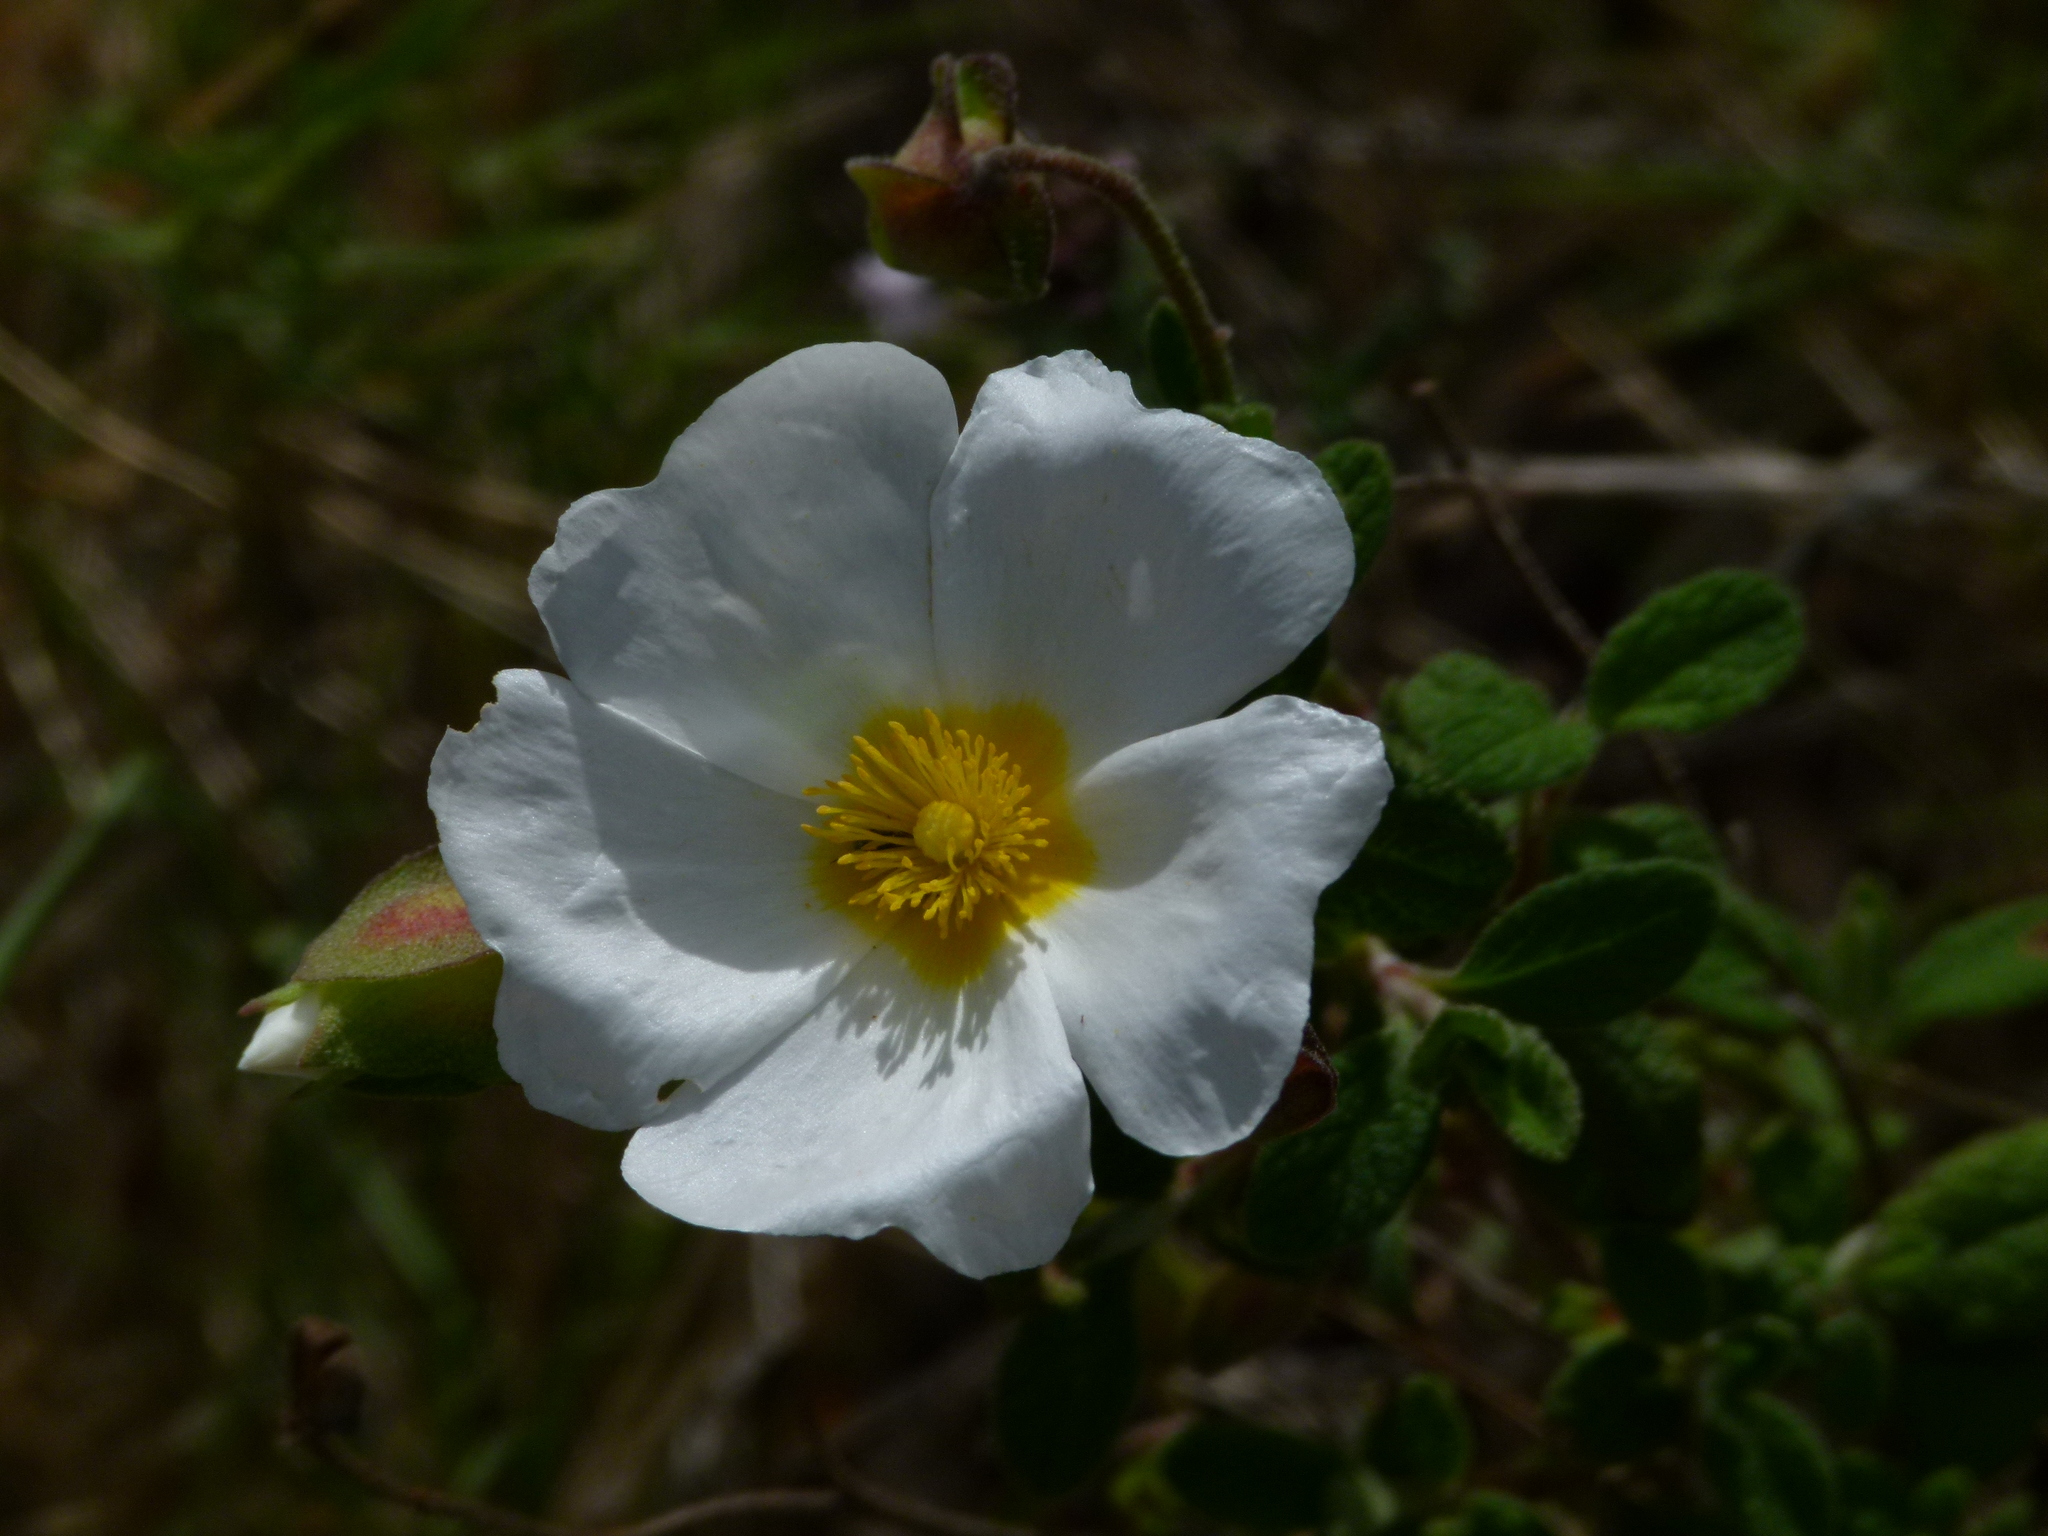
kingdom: Plantae
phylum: Tracheophyta
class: Magnoliopsida
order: Malvales
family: Cistaceae
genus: Cistus
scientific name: Cistus salviifolius
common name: Salvia cistus
